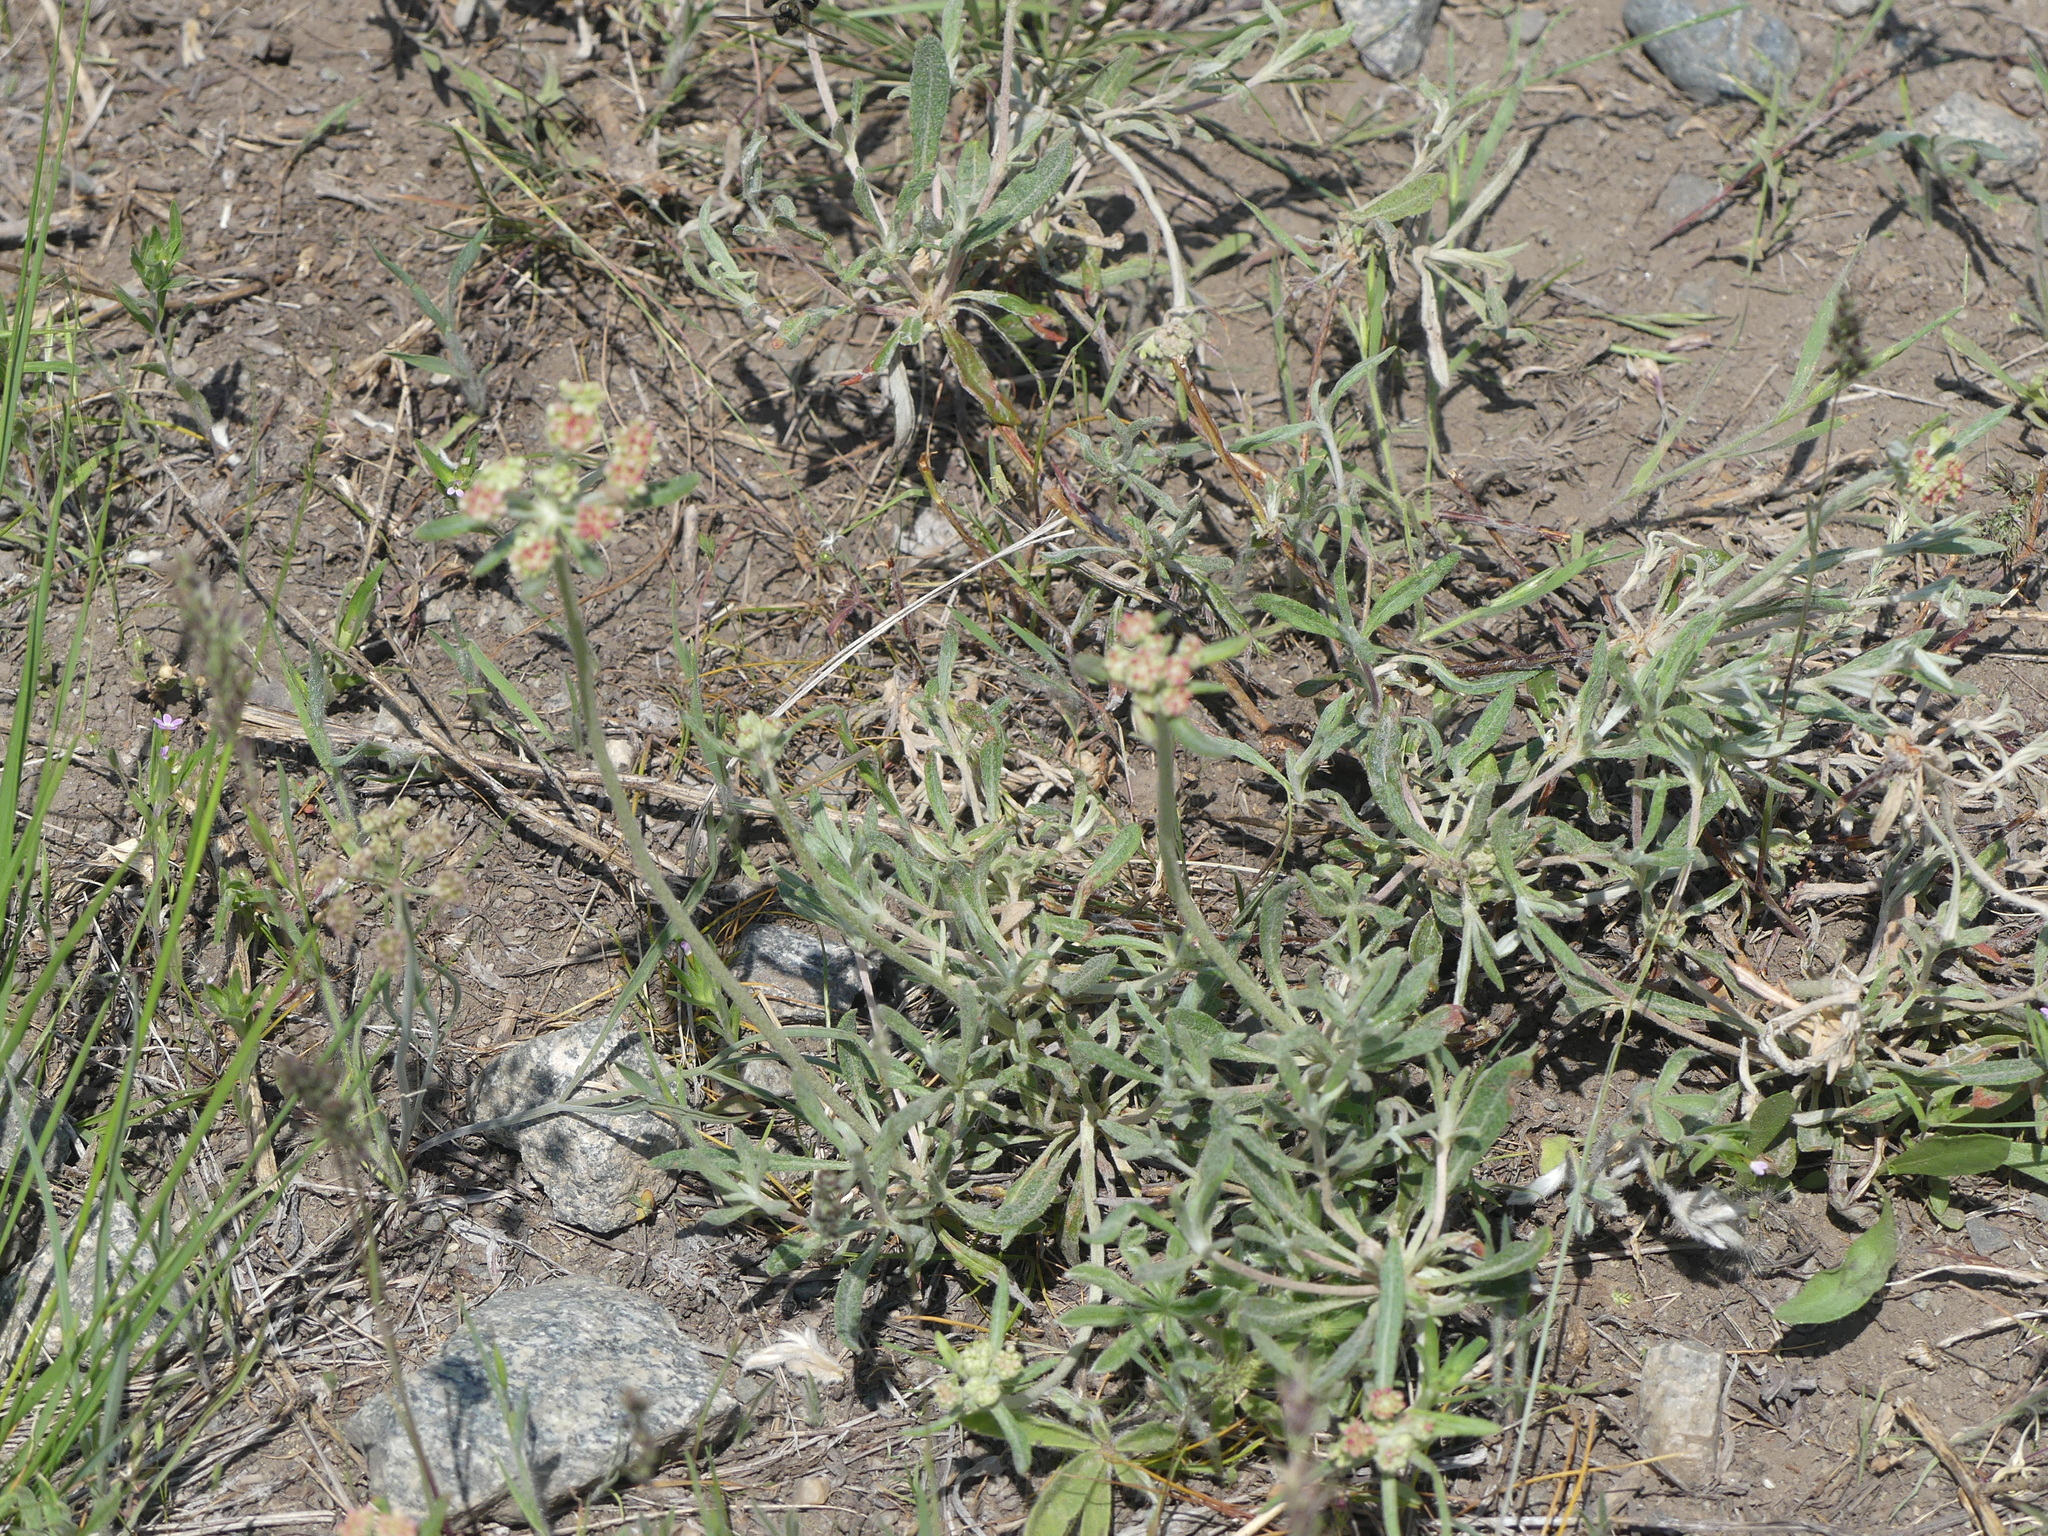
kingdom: Plantae
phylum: Tracheophyta
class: Magnoliopsida
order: Caryophyllales
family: Polygonaceae
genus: Eriogonum
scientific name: Eriogonum heracleoides
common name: Wyeth's buckwheat
